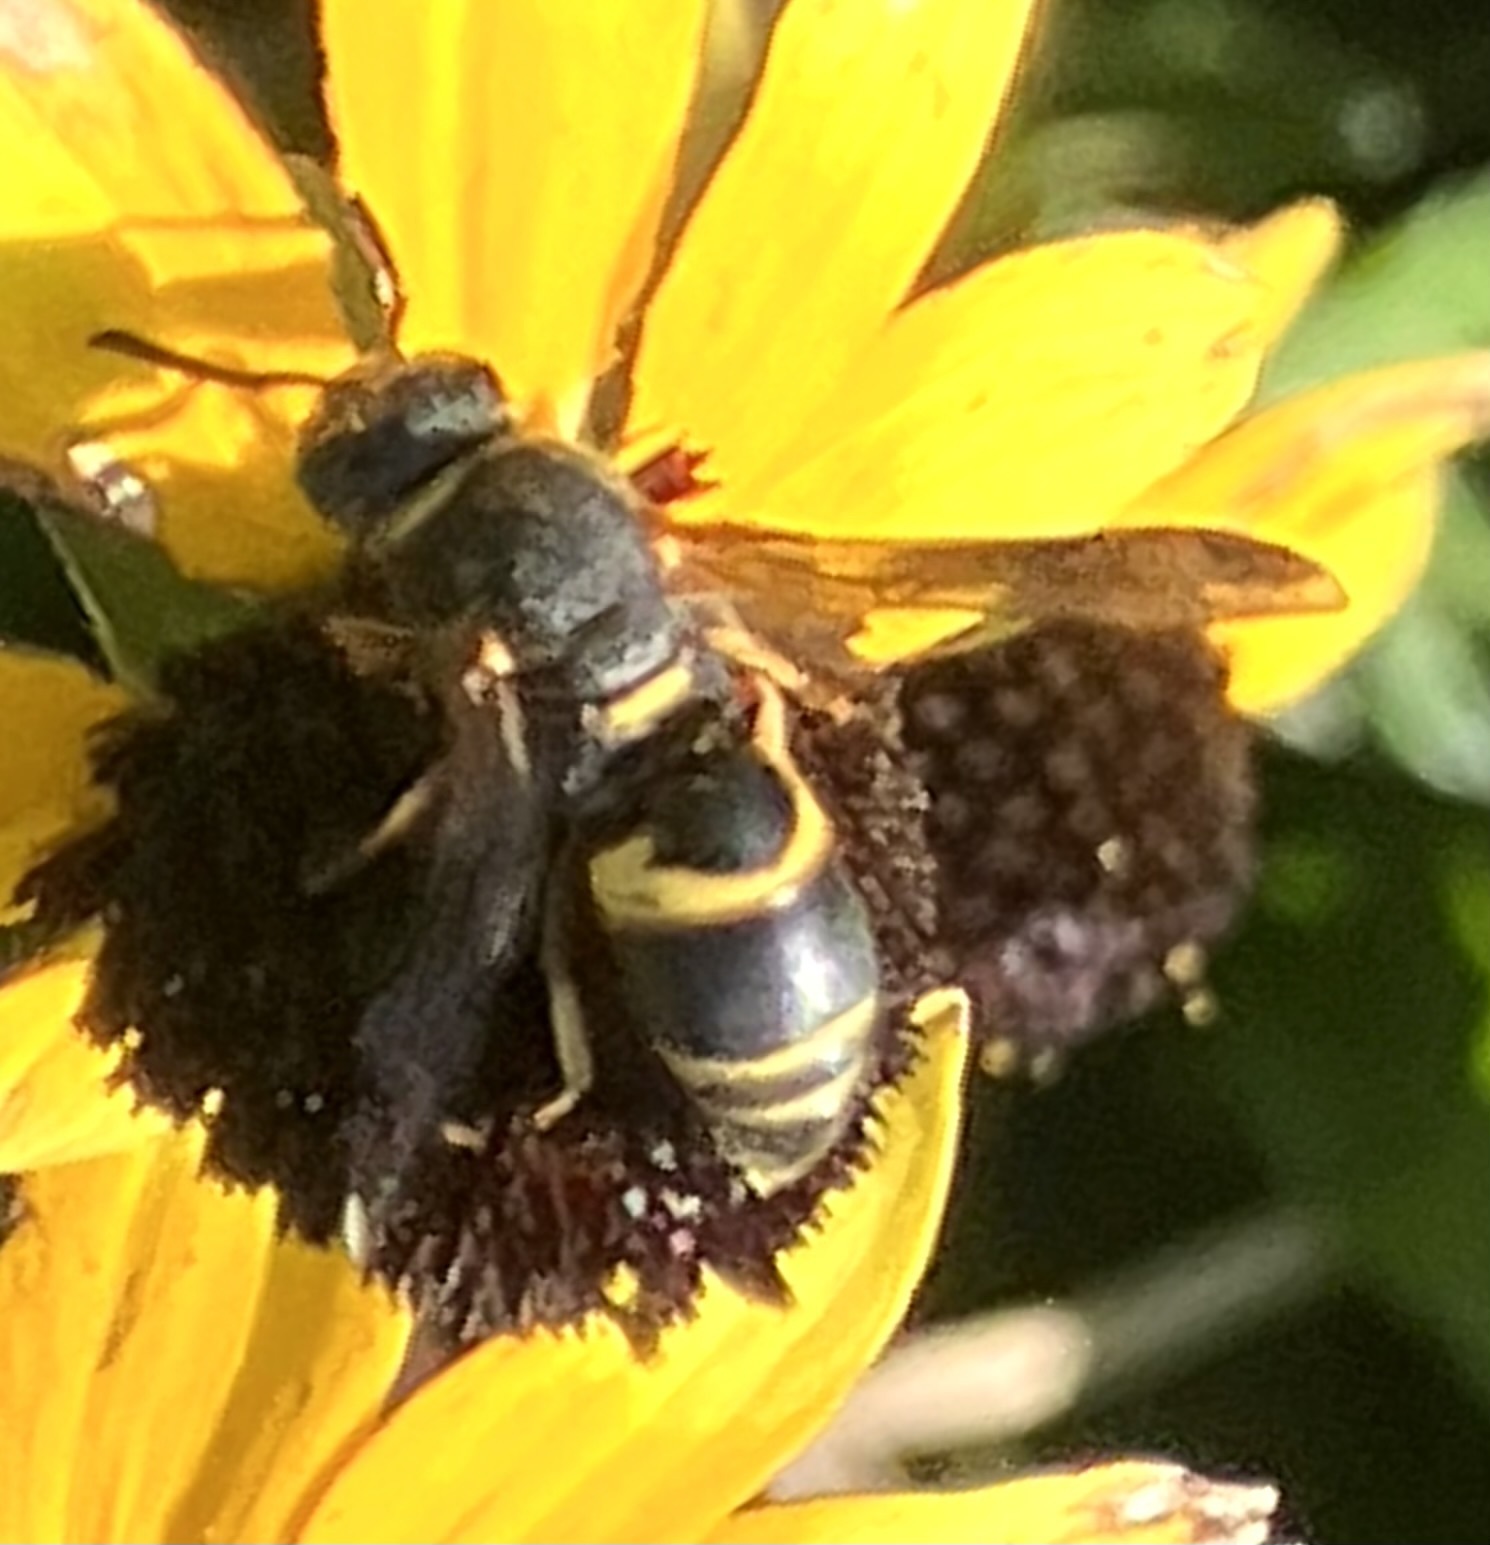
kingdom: Animalia
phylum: Arthropoda
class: Insecta
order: Hymenoptera
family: Eumenidae
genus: Euodynerus
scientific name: Euodynerus hidalgo
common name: Wasp
